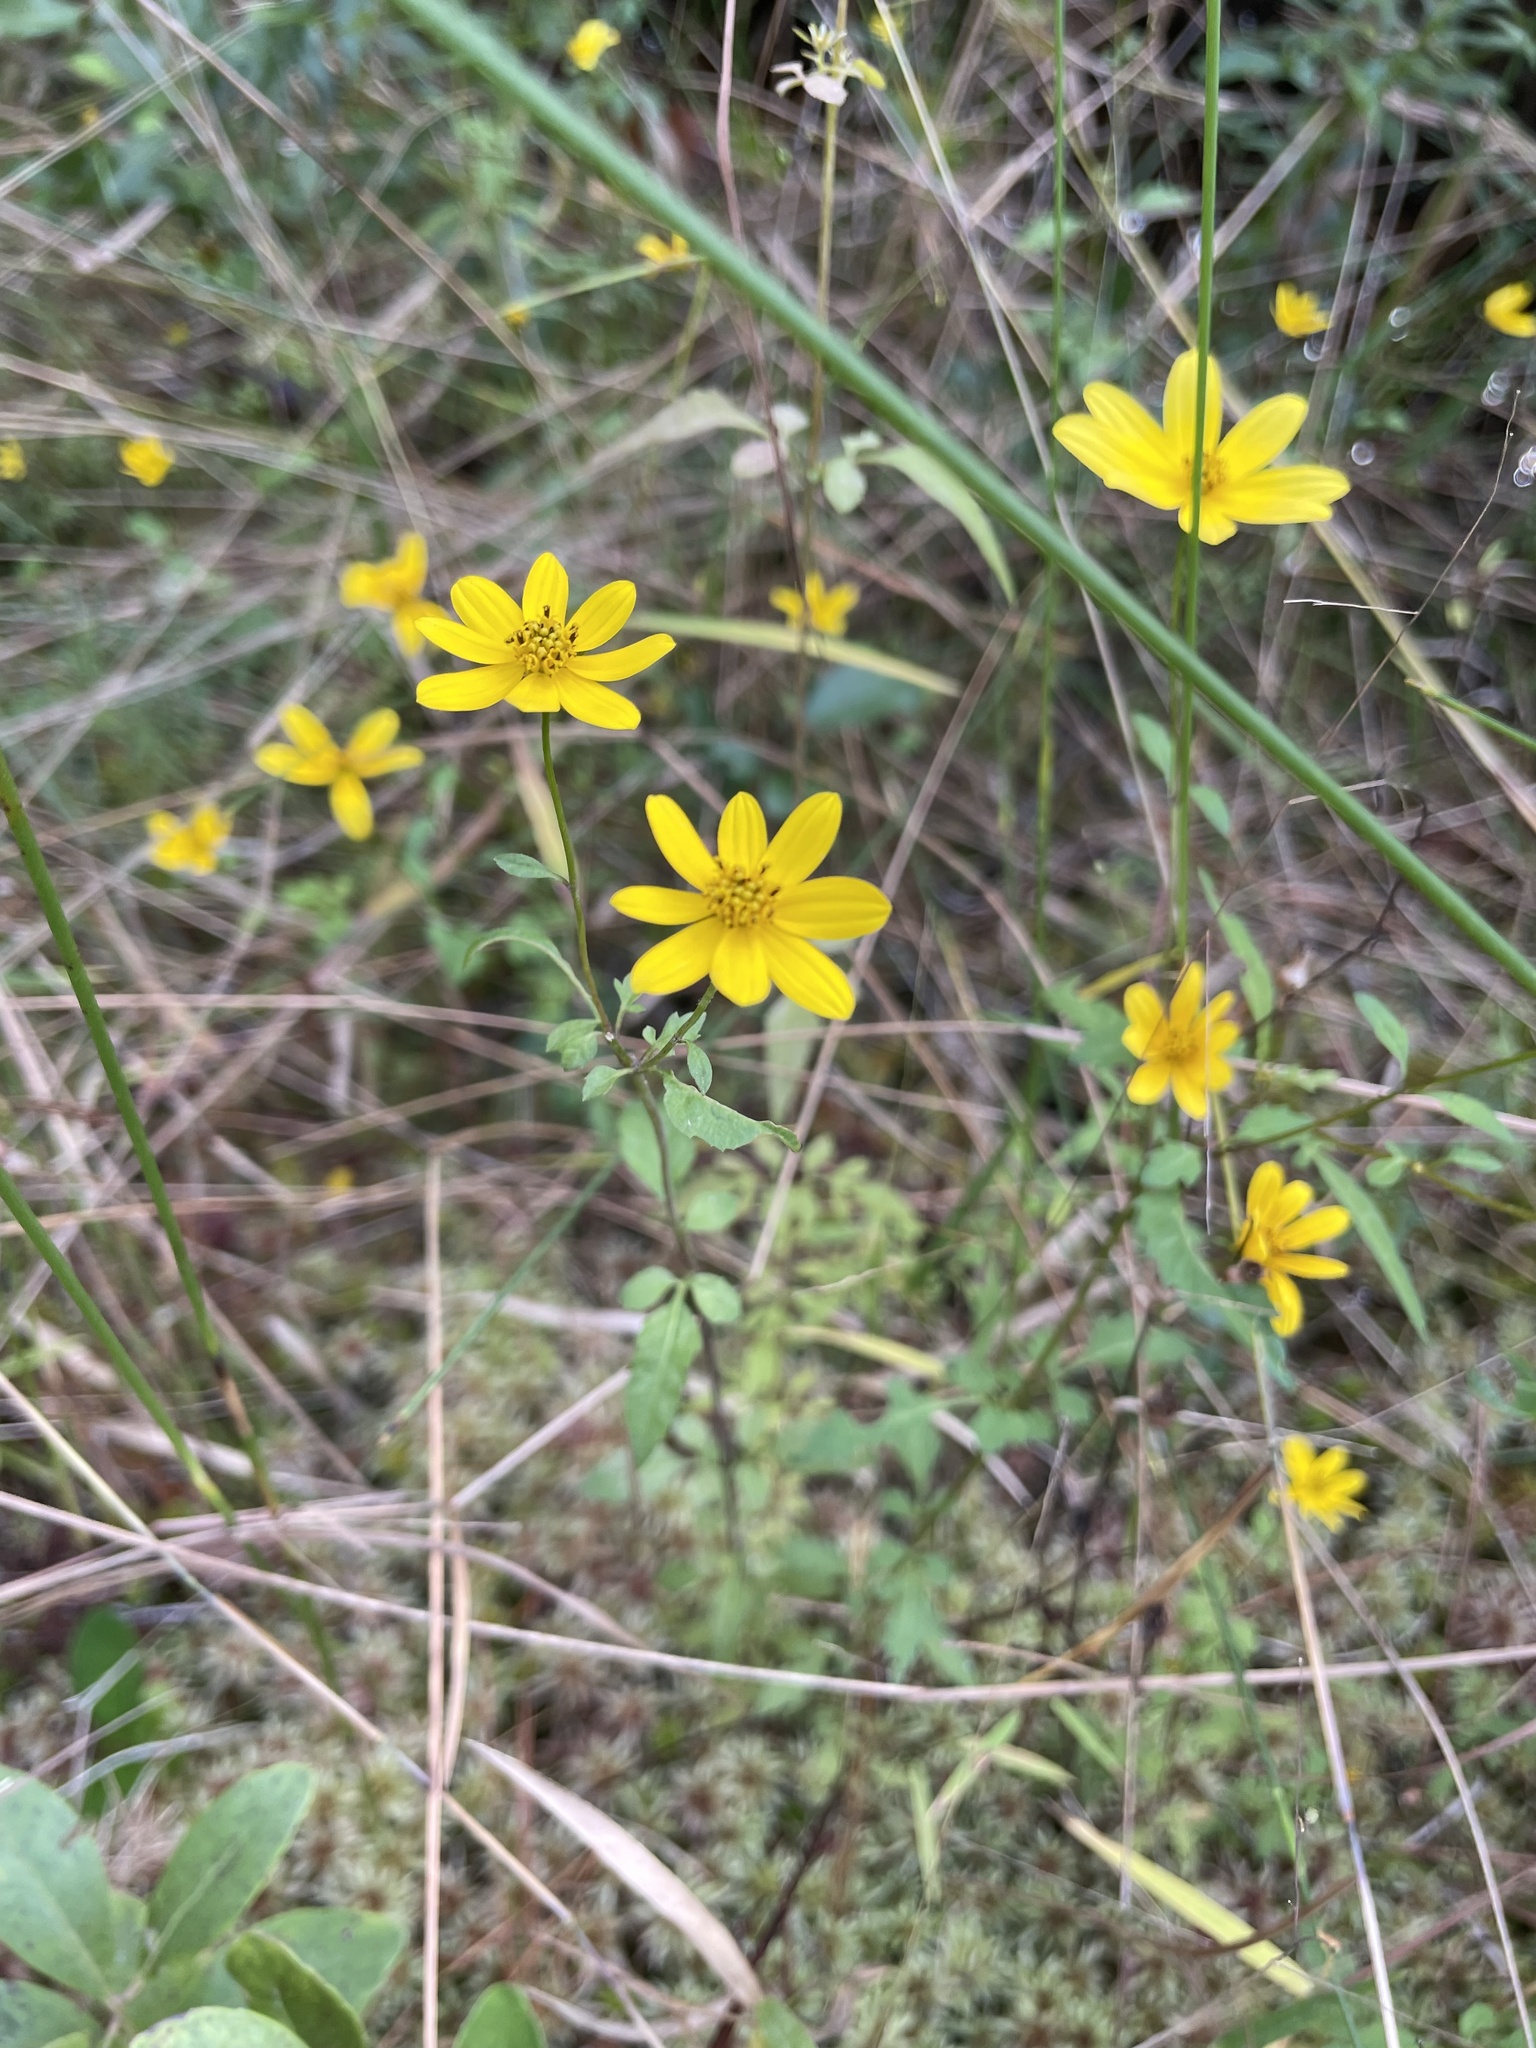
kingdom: Plantae
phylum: Tracheophyta
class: Magnoliopsida
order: Asterales
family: Asteraceae
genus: Bidens
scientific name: Bidens mitis
